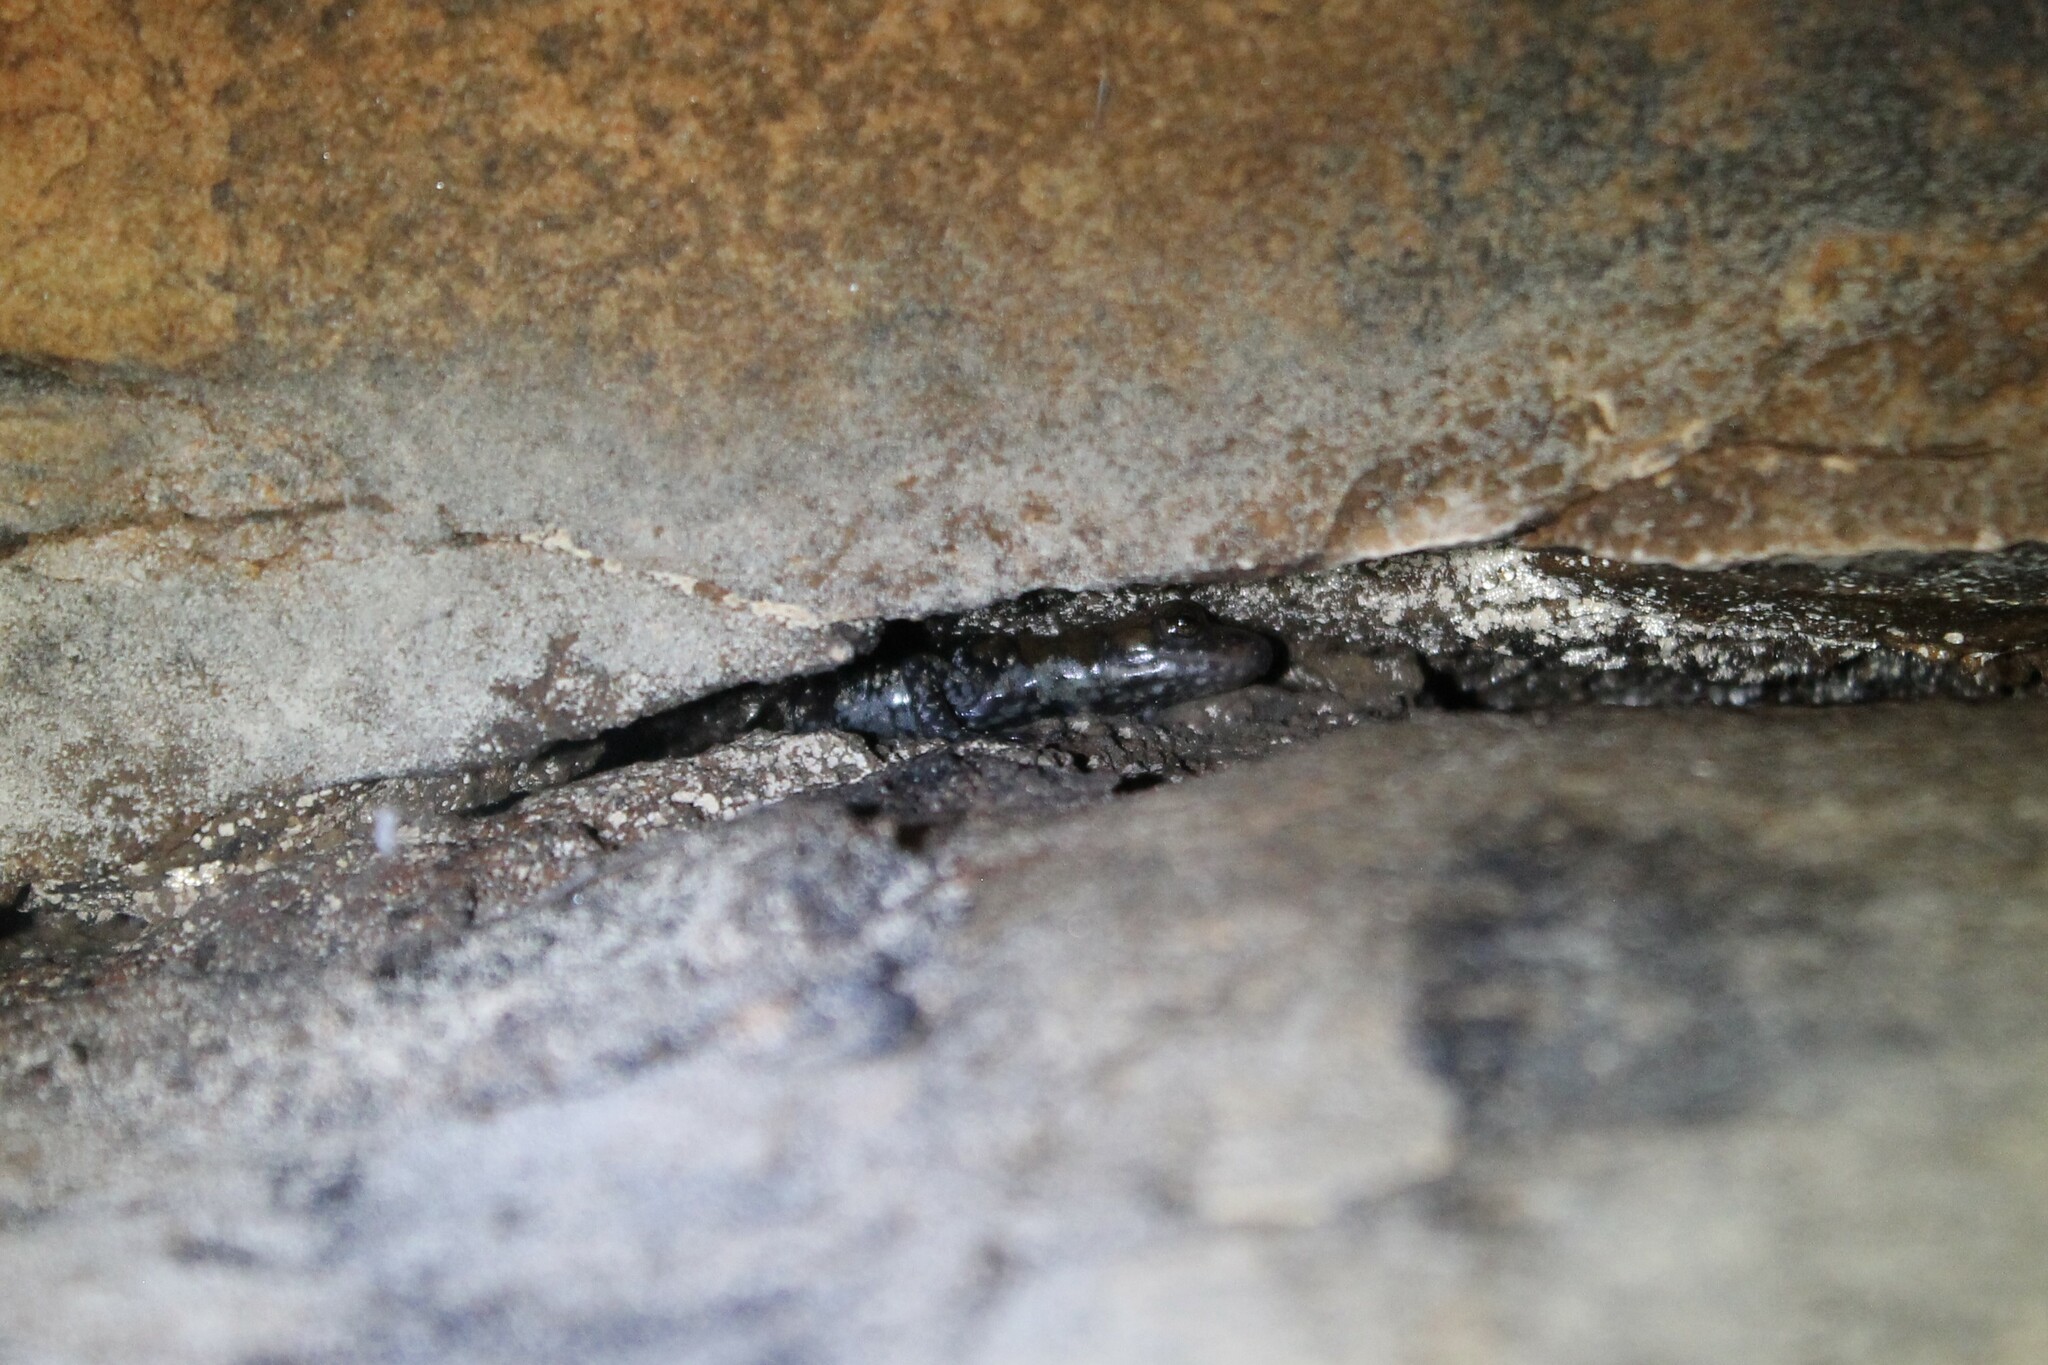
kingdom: Animalia
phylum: Chordata
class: Amphibia
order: Caudata
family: Plethodontidae
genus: Plethodon
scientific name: Plethodon petraeus
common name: Pigeon mountain salamander
